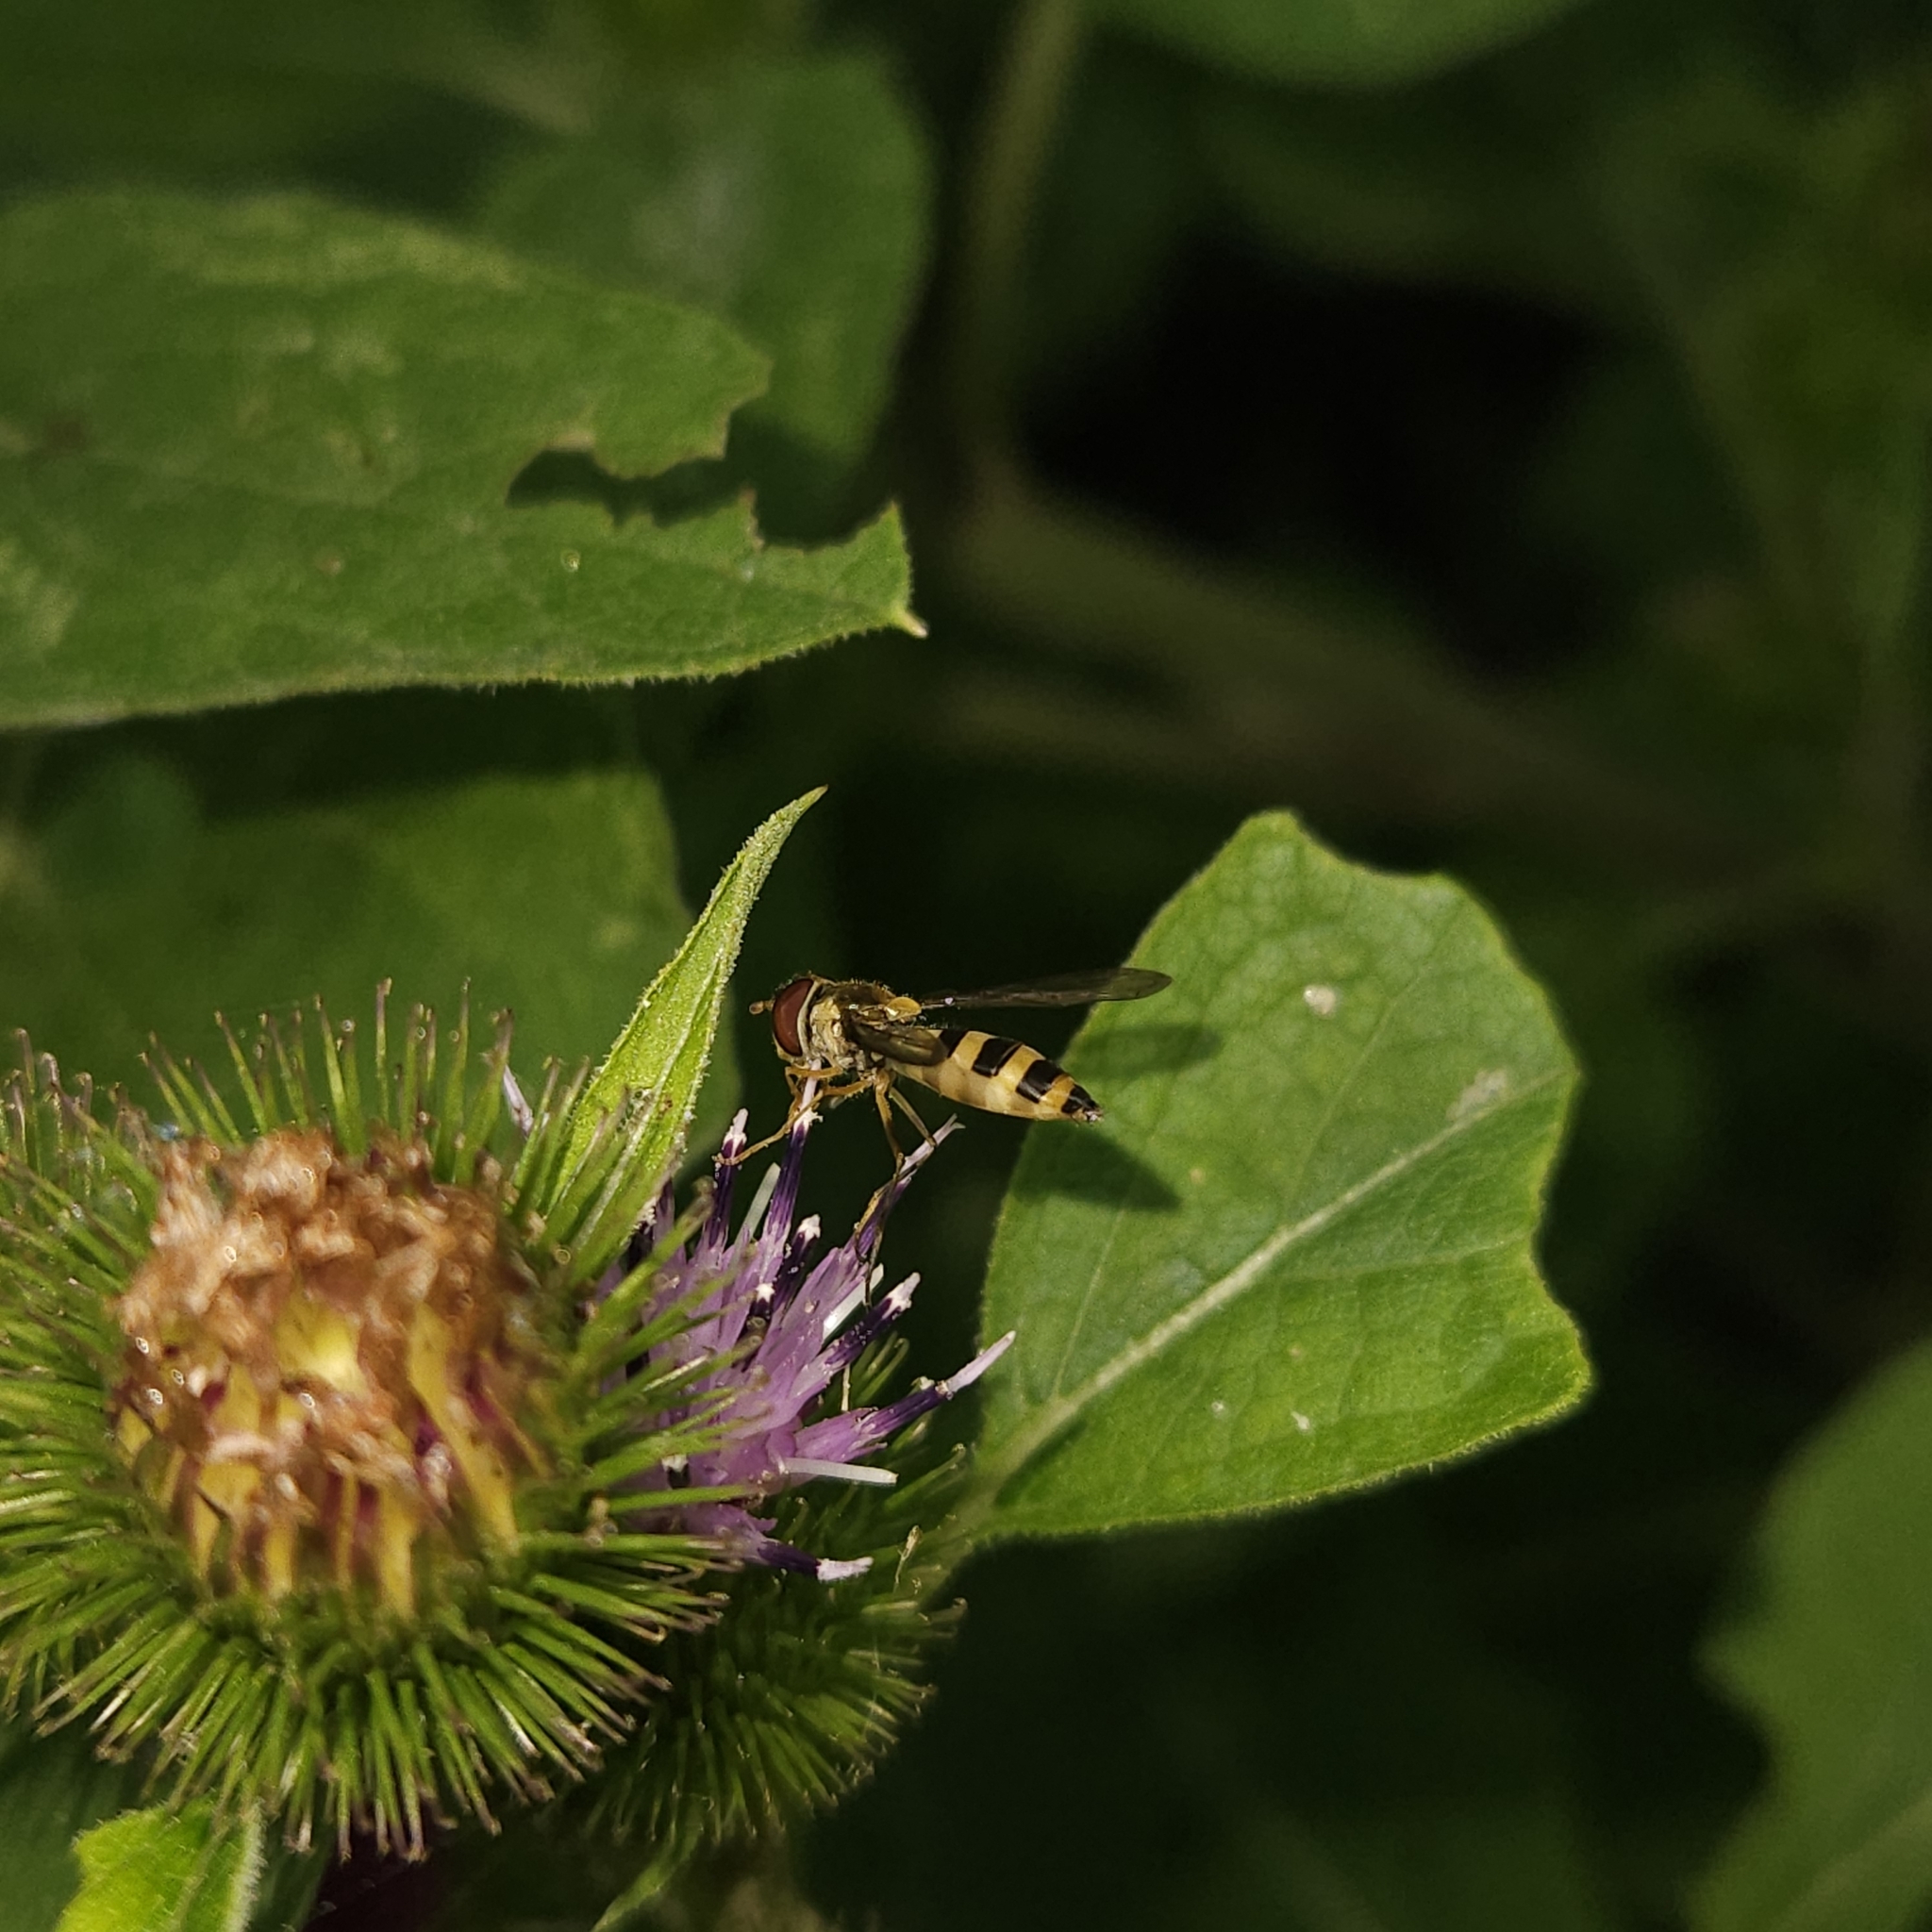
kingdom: Animalia
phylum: Arthropoda
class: Insecta
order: Diptera
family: Syrphidae
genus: Meliscaeva
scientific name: Meliscaeva cinctella
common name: American thintail fly
